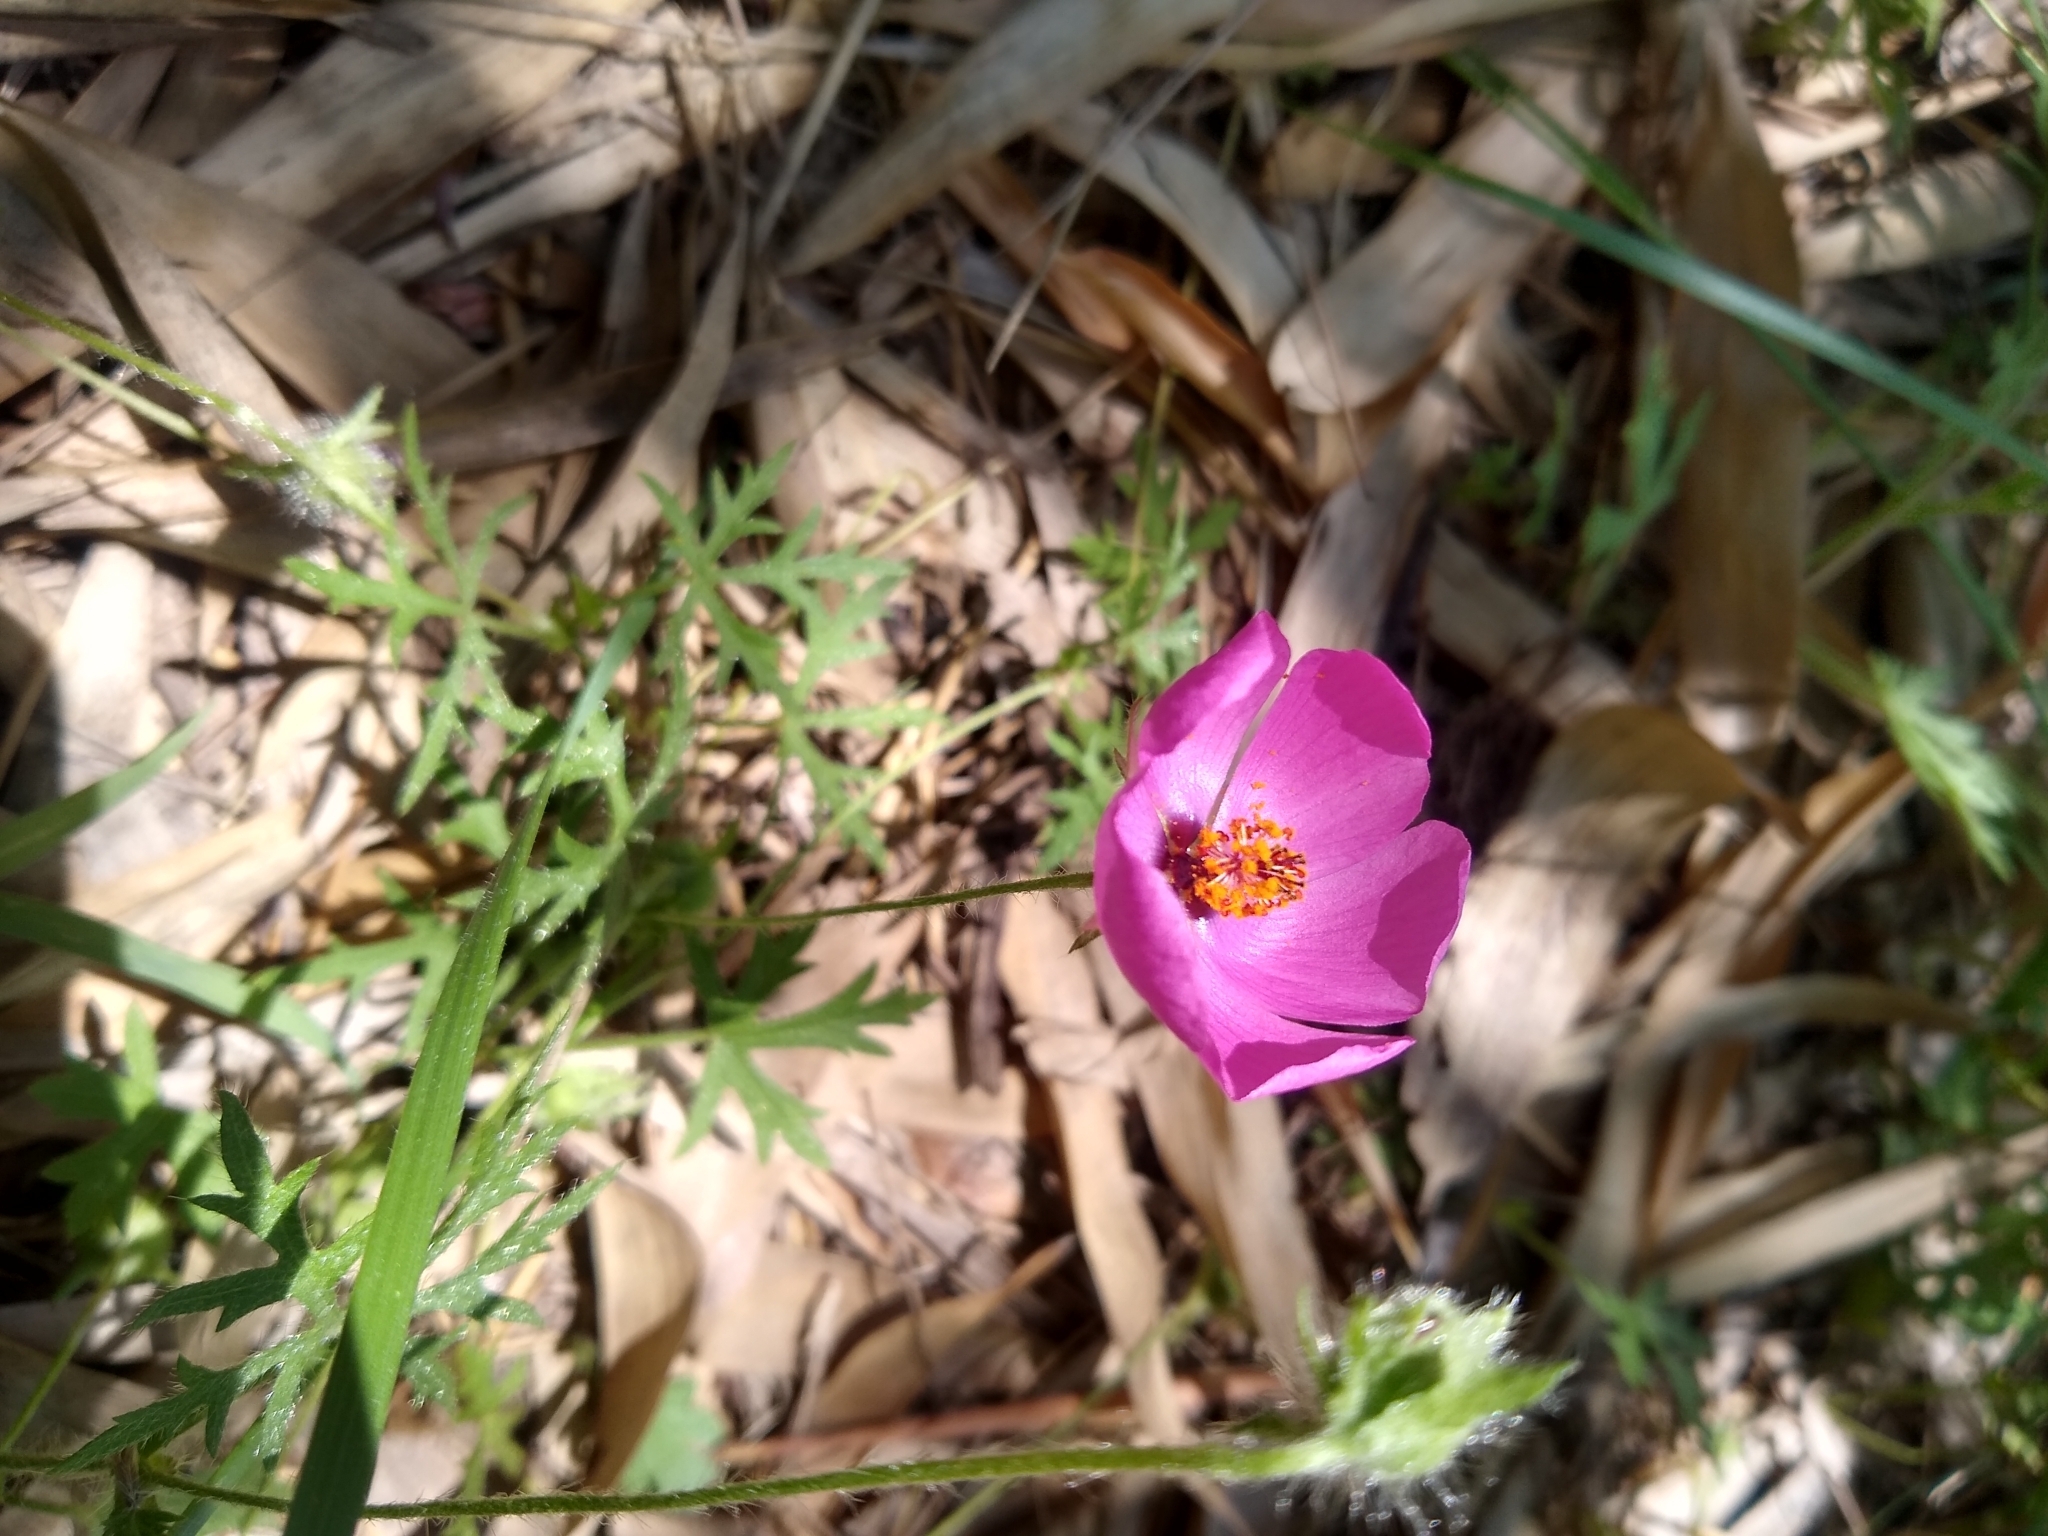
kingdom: Plantae
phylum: Tracheophyta
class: Magnoliopsida
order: Malvales
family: Malvaceae
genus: Modiolastrum
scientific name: Modiolastrum gilliesii
